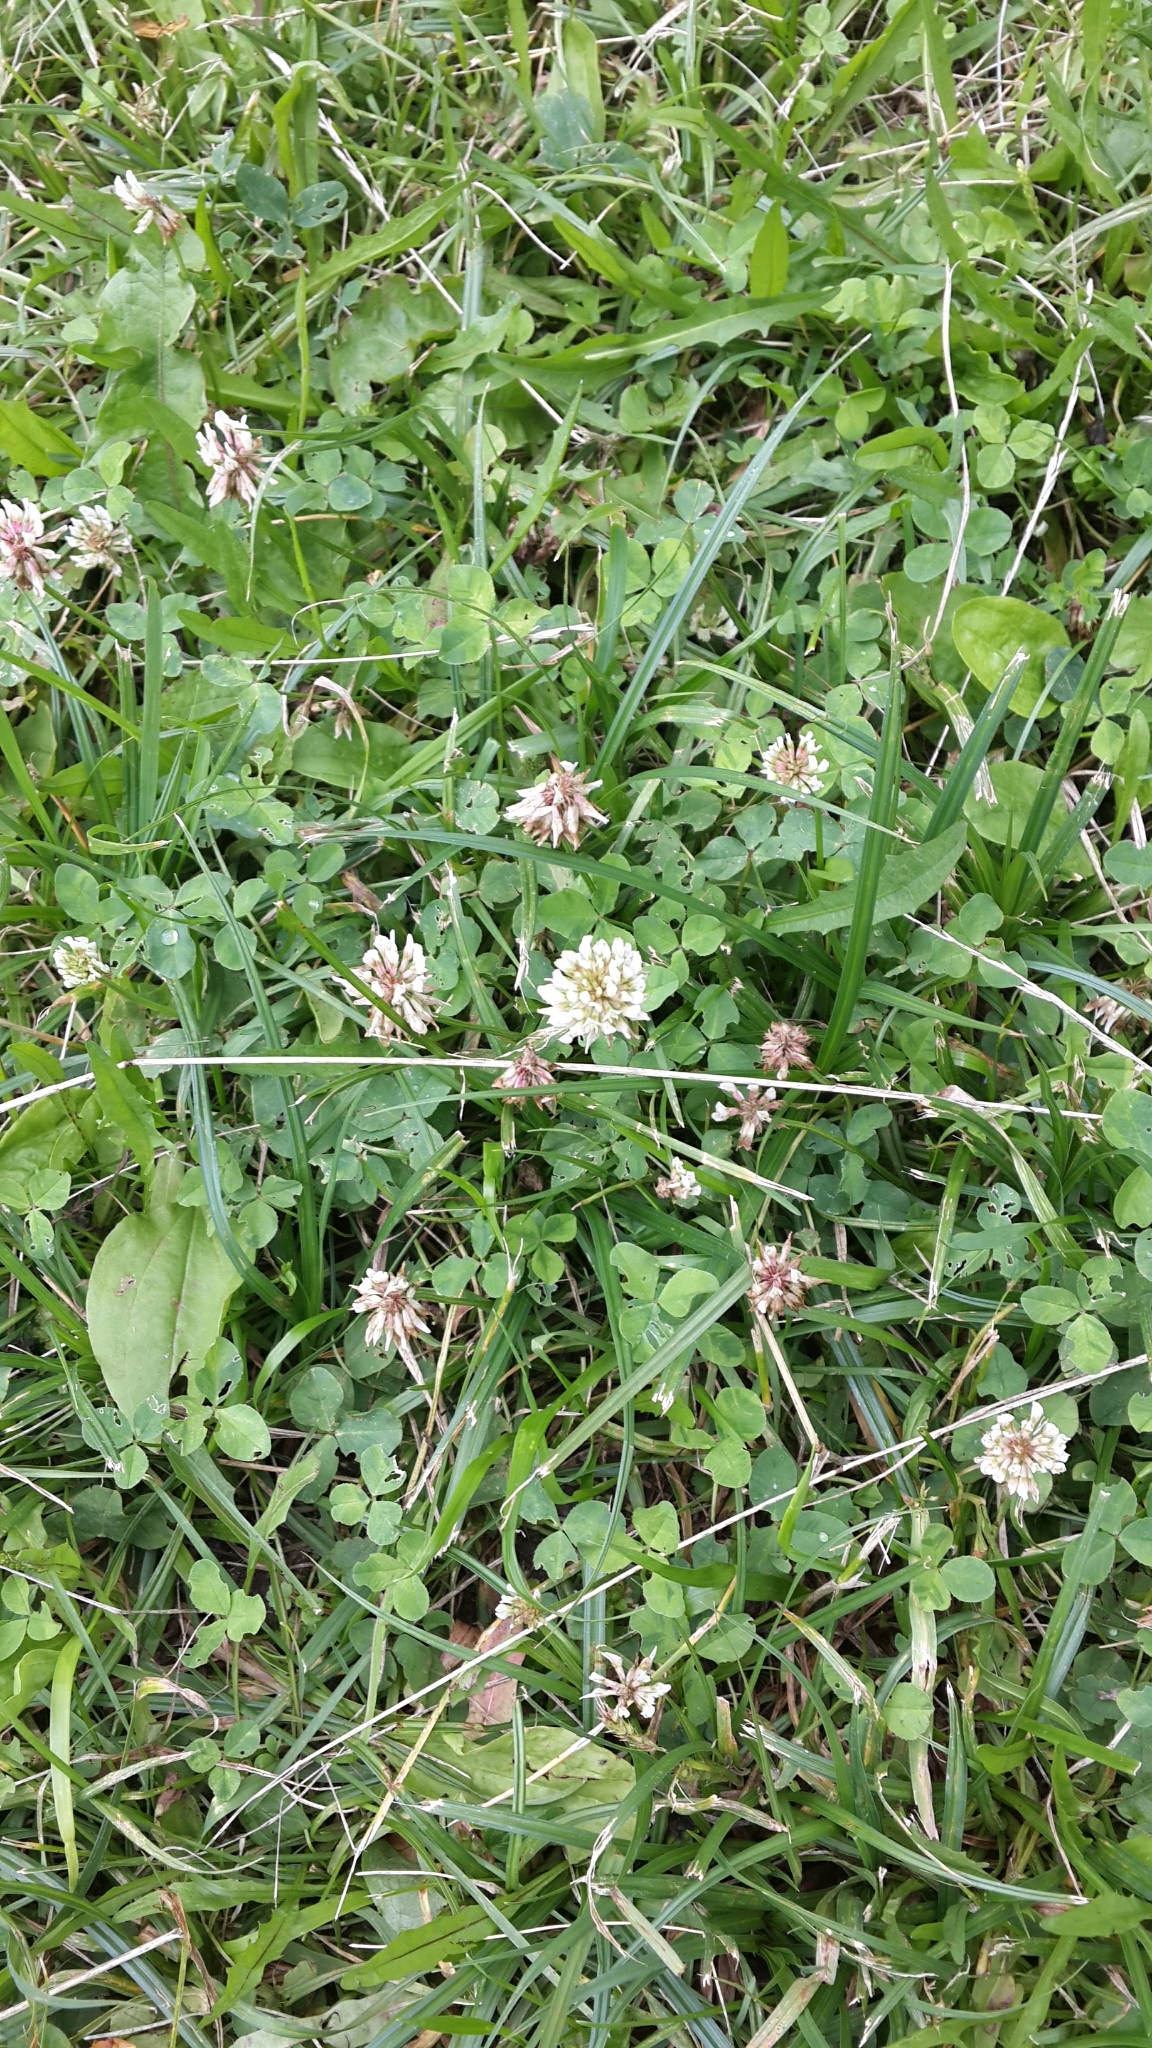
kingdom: Plantae
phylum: Tracheophyta
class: Magnoliopsida
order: Fabales
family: Fabaceae
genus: Trifolium
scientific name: Trifolium repens
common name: White clover
